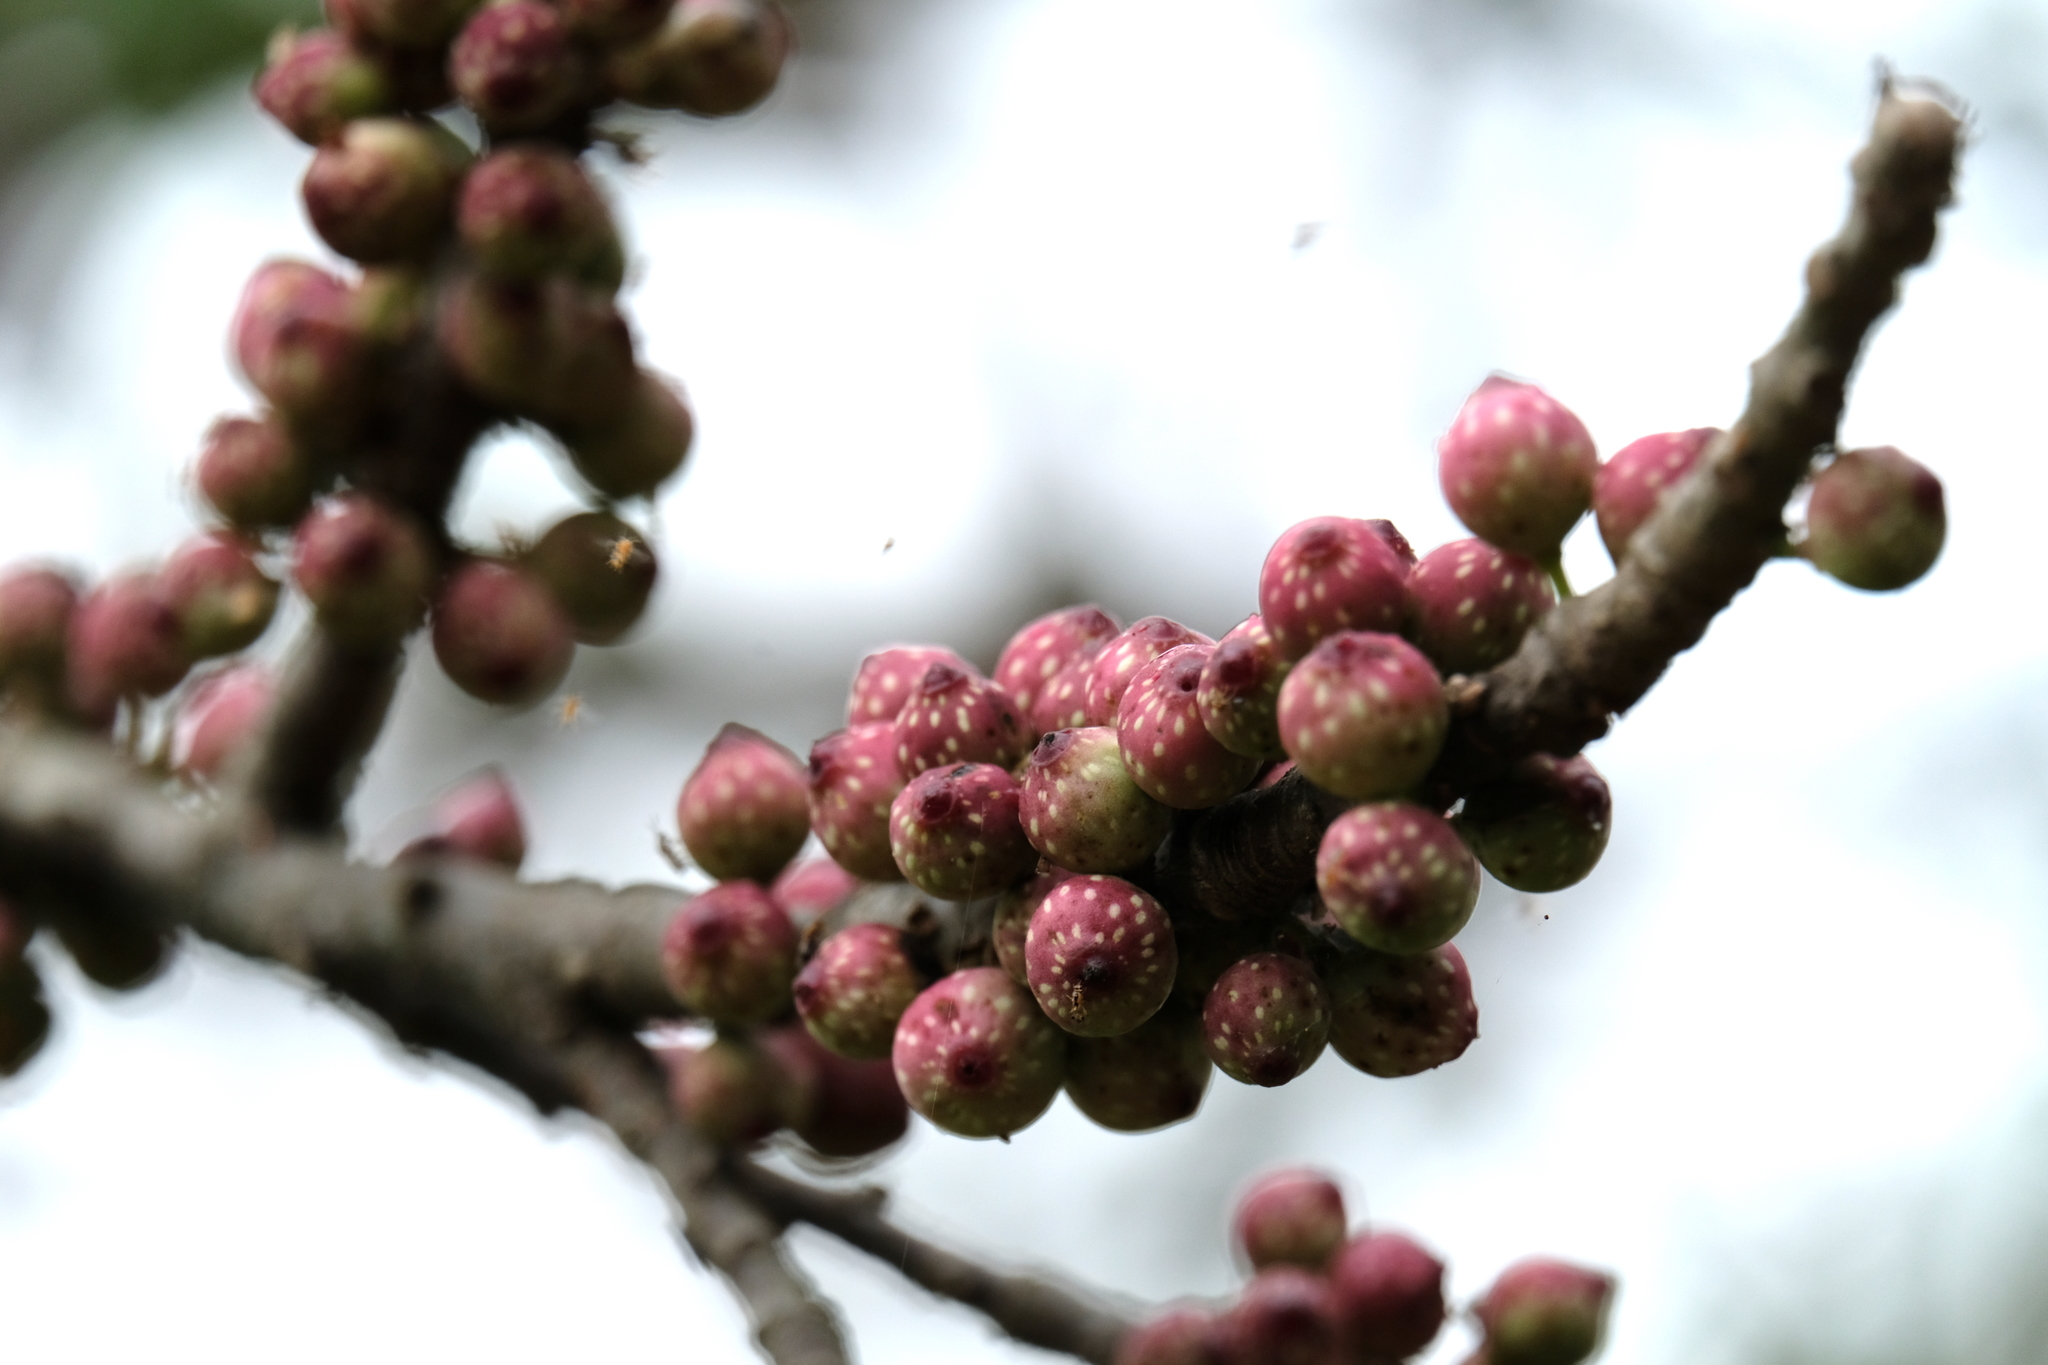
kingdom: Plantae
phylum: Tracheophyta
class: Magnoliopsida
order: Rosales
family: Moraceae
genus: Ficus
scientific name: Ficus subpisocarpa
